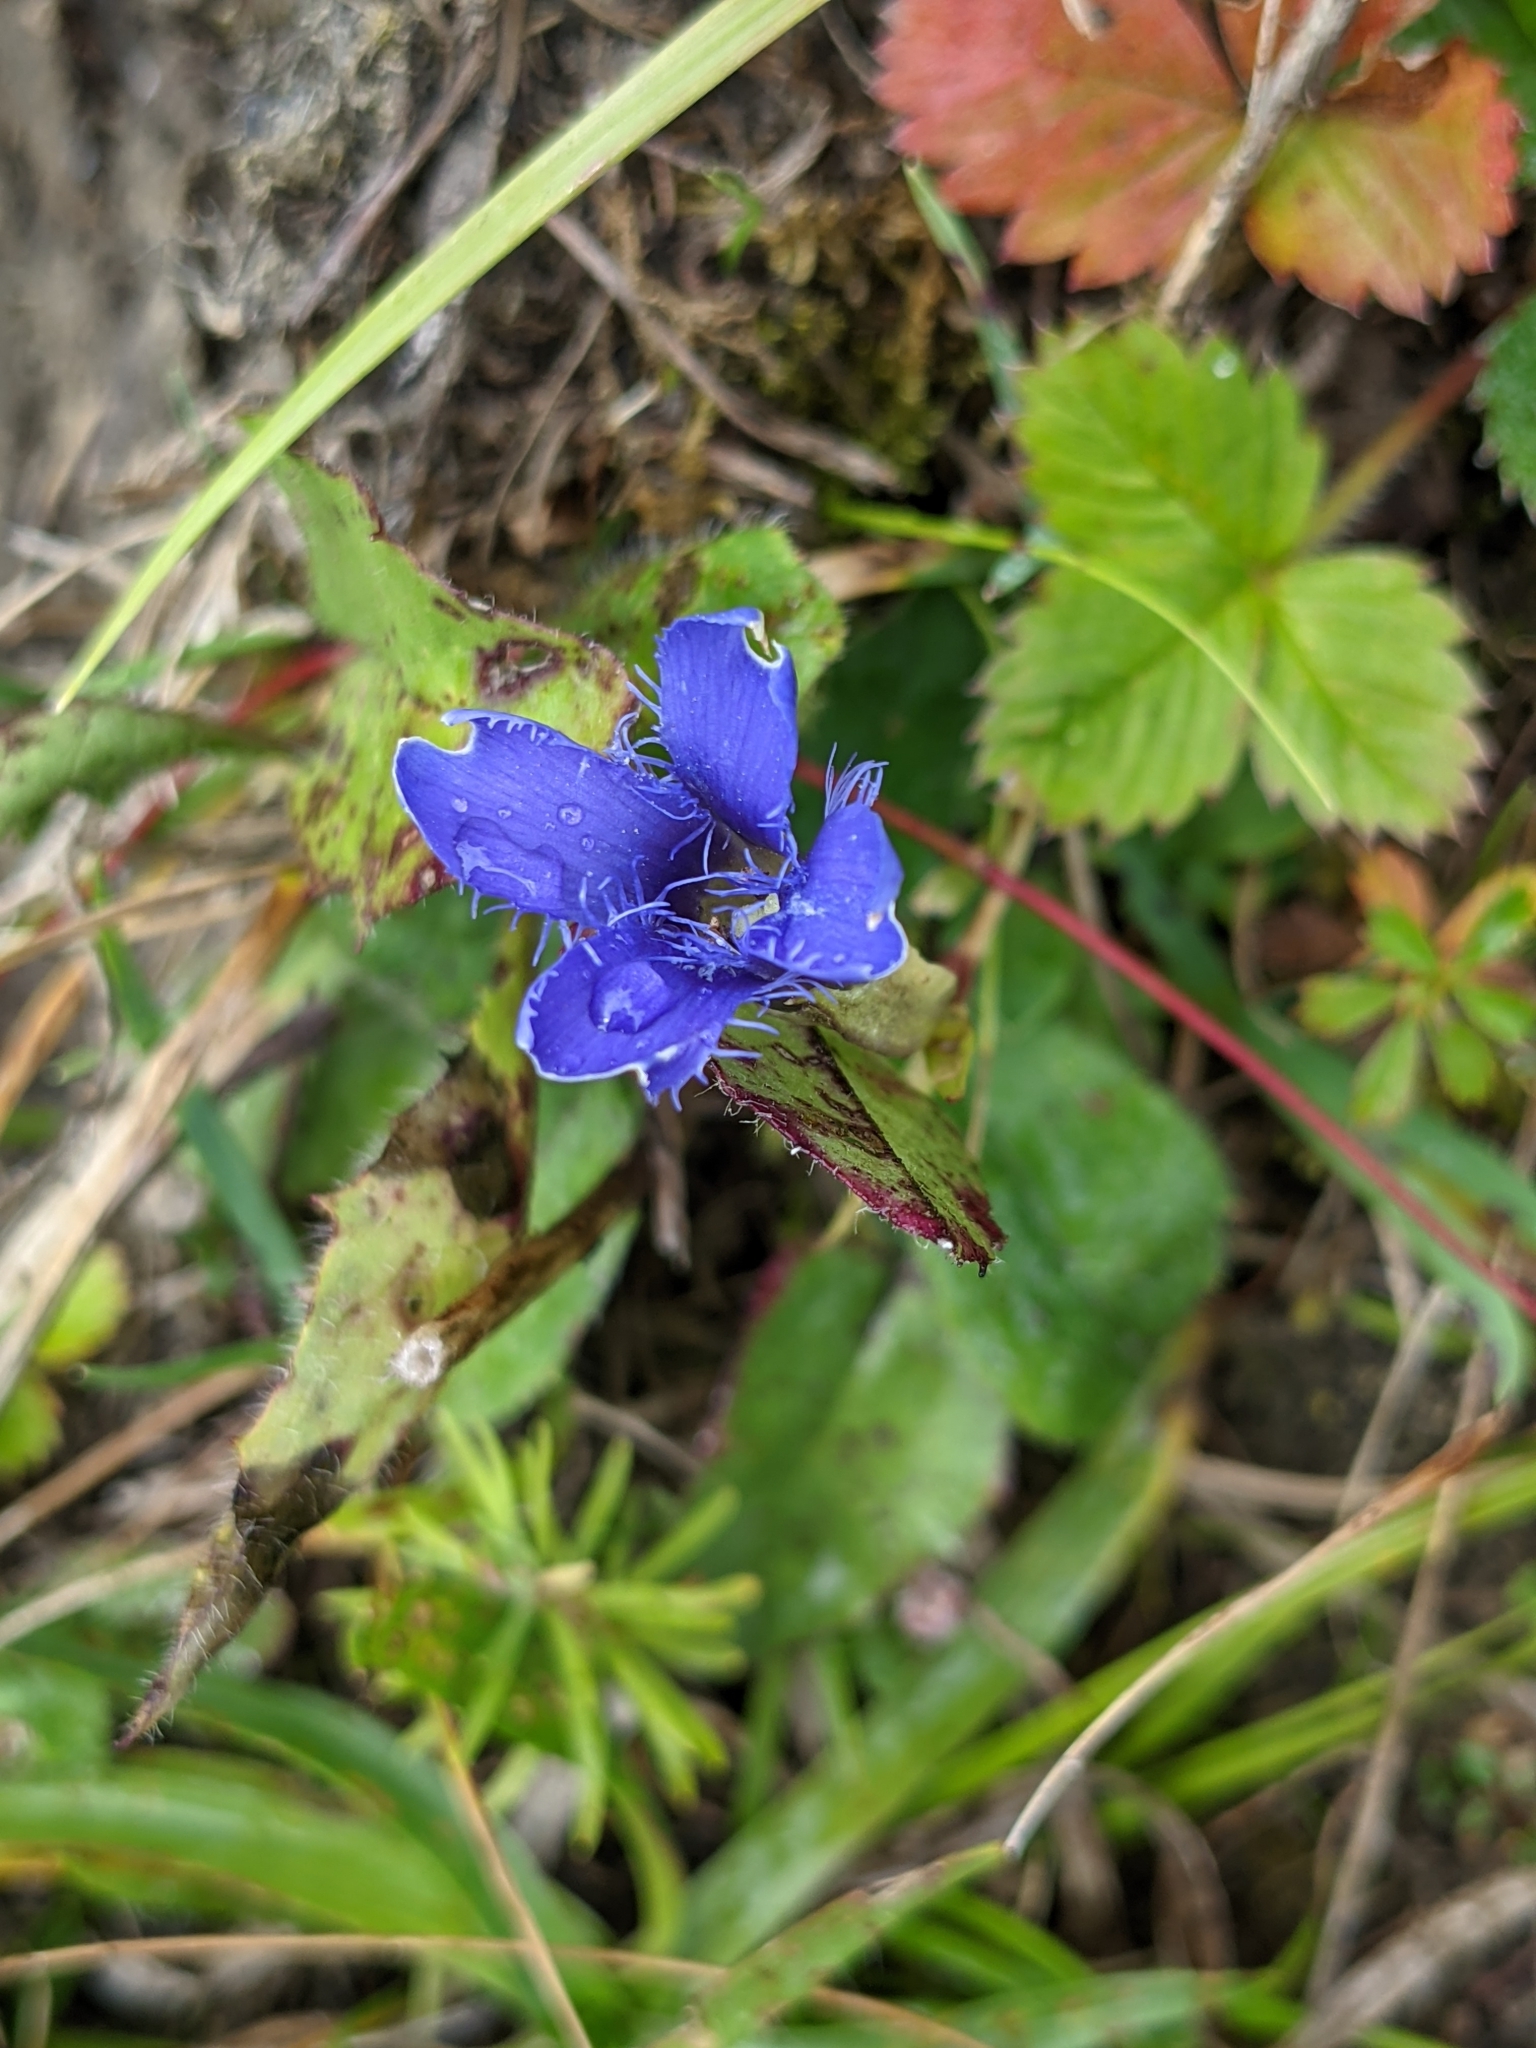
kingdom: Plantae
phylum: Tracheophyta
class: Magnoliopsida
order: Gentianales
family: Gentianaceae
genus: Gentianopsis
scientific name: Gentianopsis ciliata
